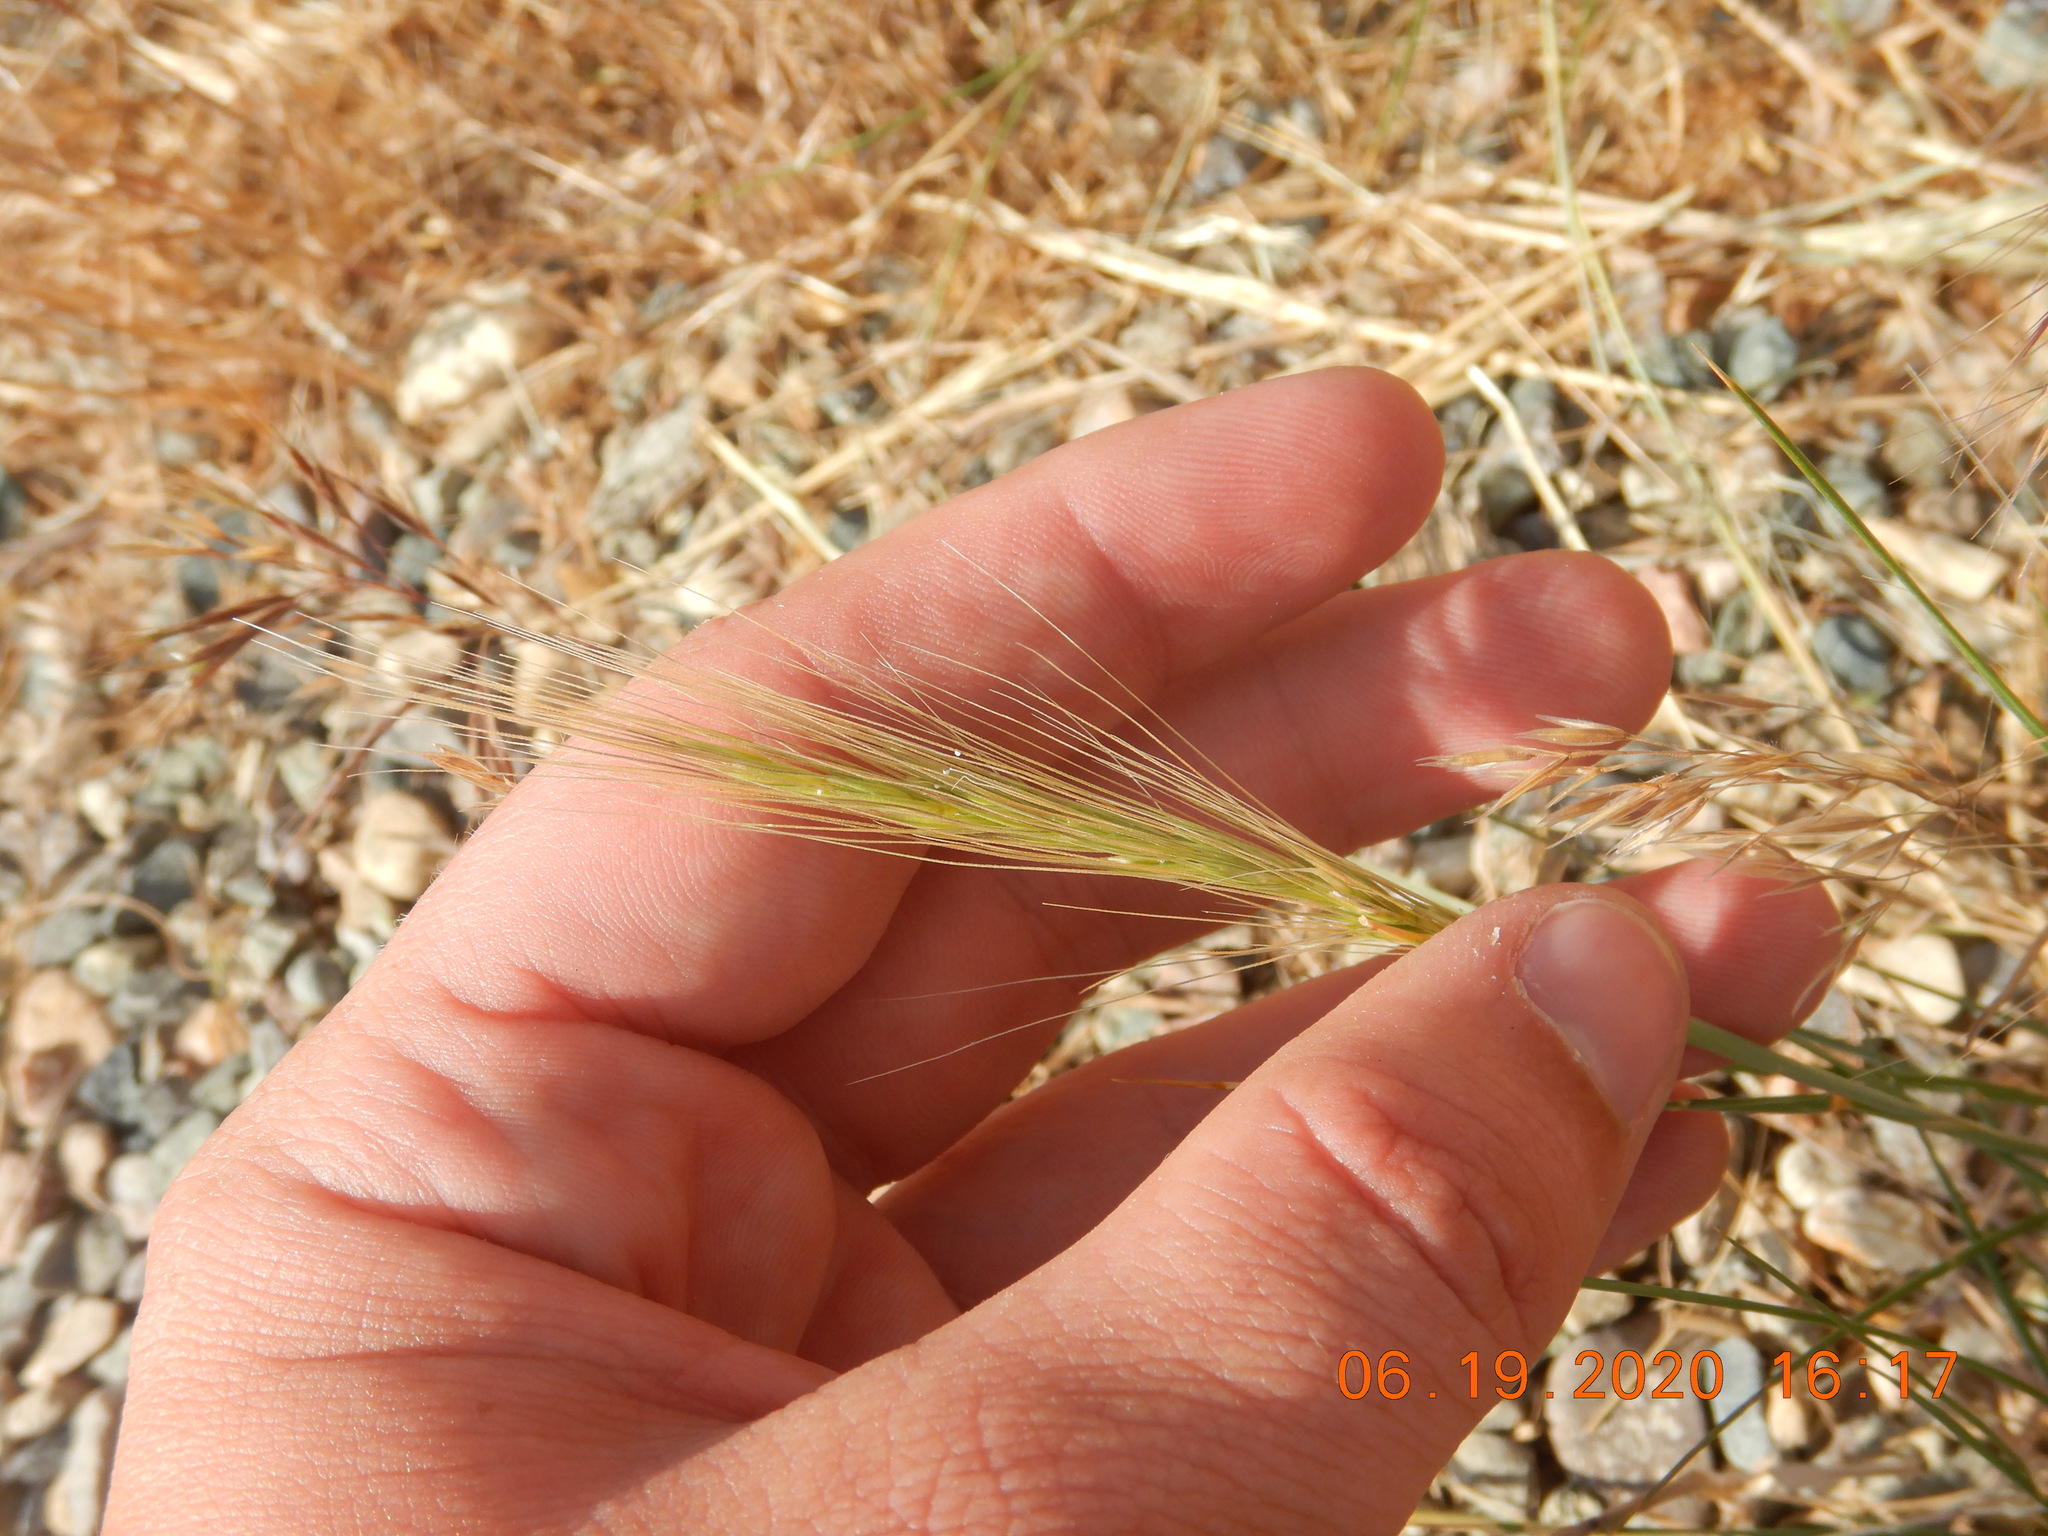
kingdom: Plantae
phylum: Tracheophyta
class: Liliopsida
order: Poales
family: Poaceae
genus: Elymus
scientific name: Elymus elymoides
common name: Bottlebrush squirreltail
